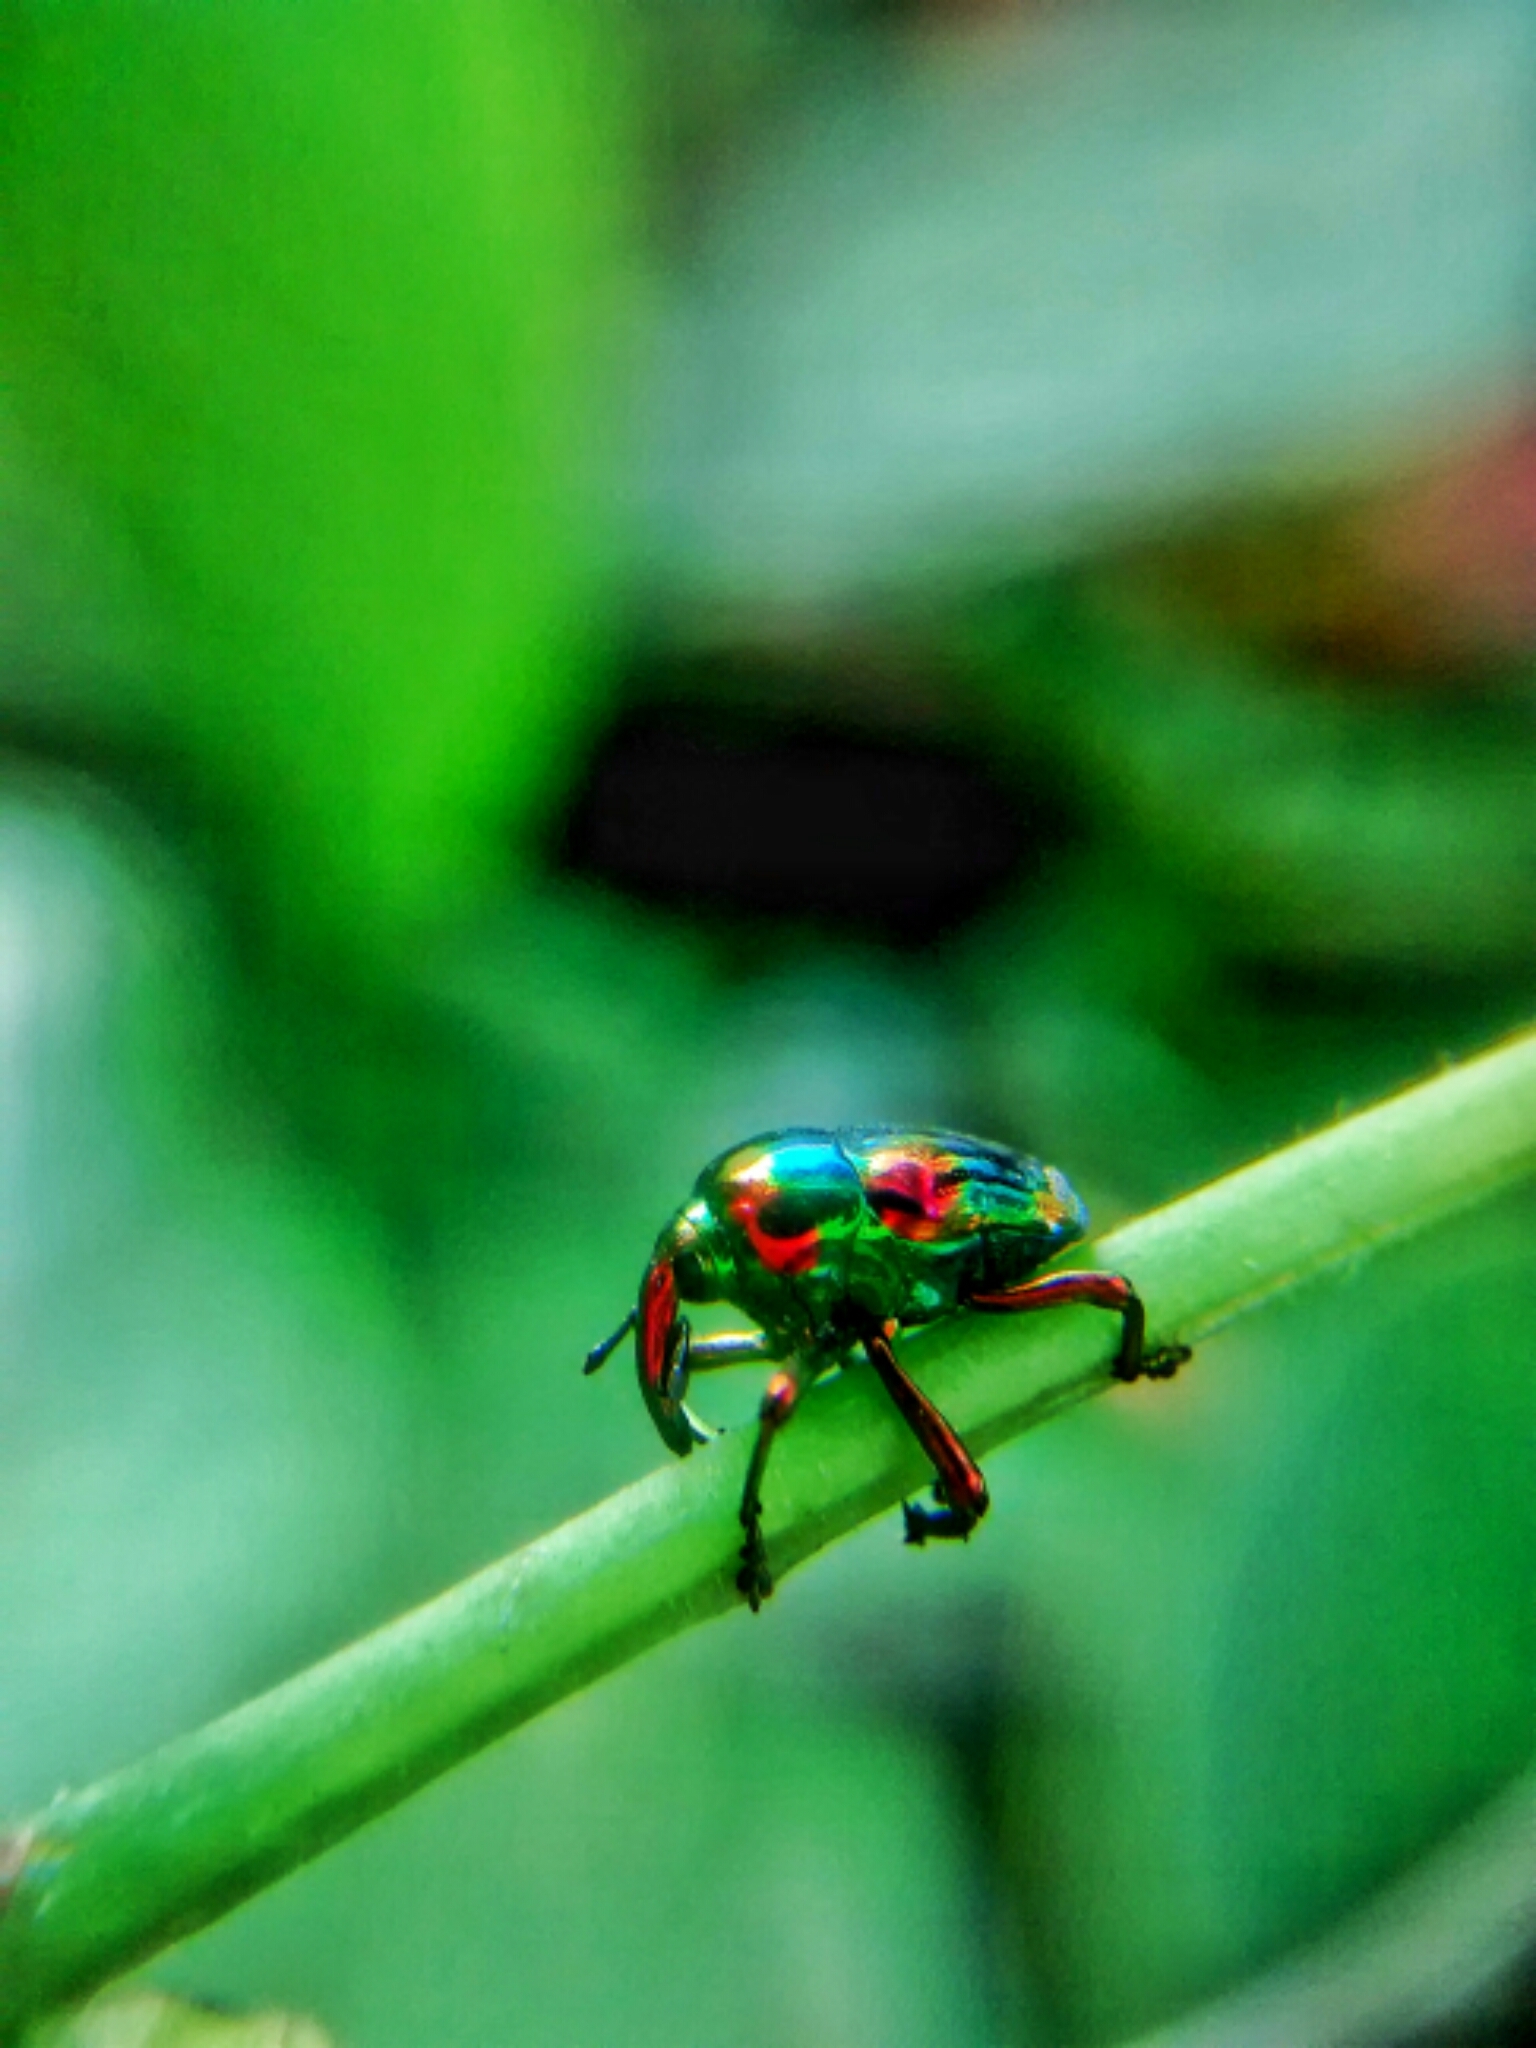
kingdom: Animalia
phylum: Arthropoda
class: Insecta
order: Coleoptera
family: Eurhynchidae
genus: Eurhinus
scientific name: Eurhinus magnificus
